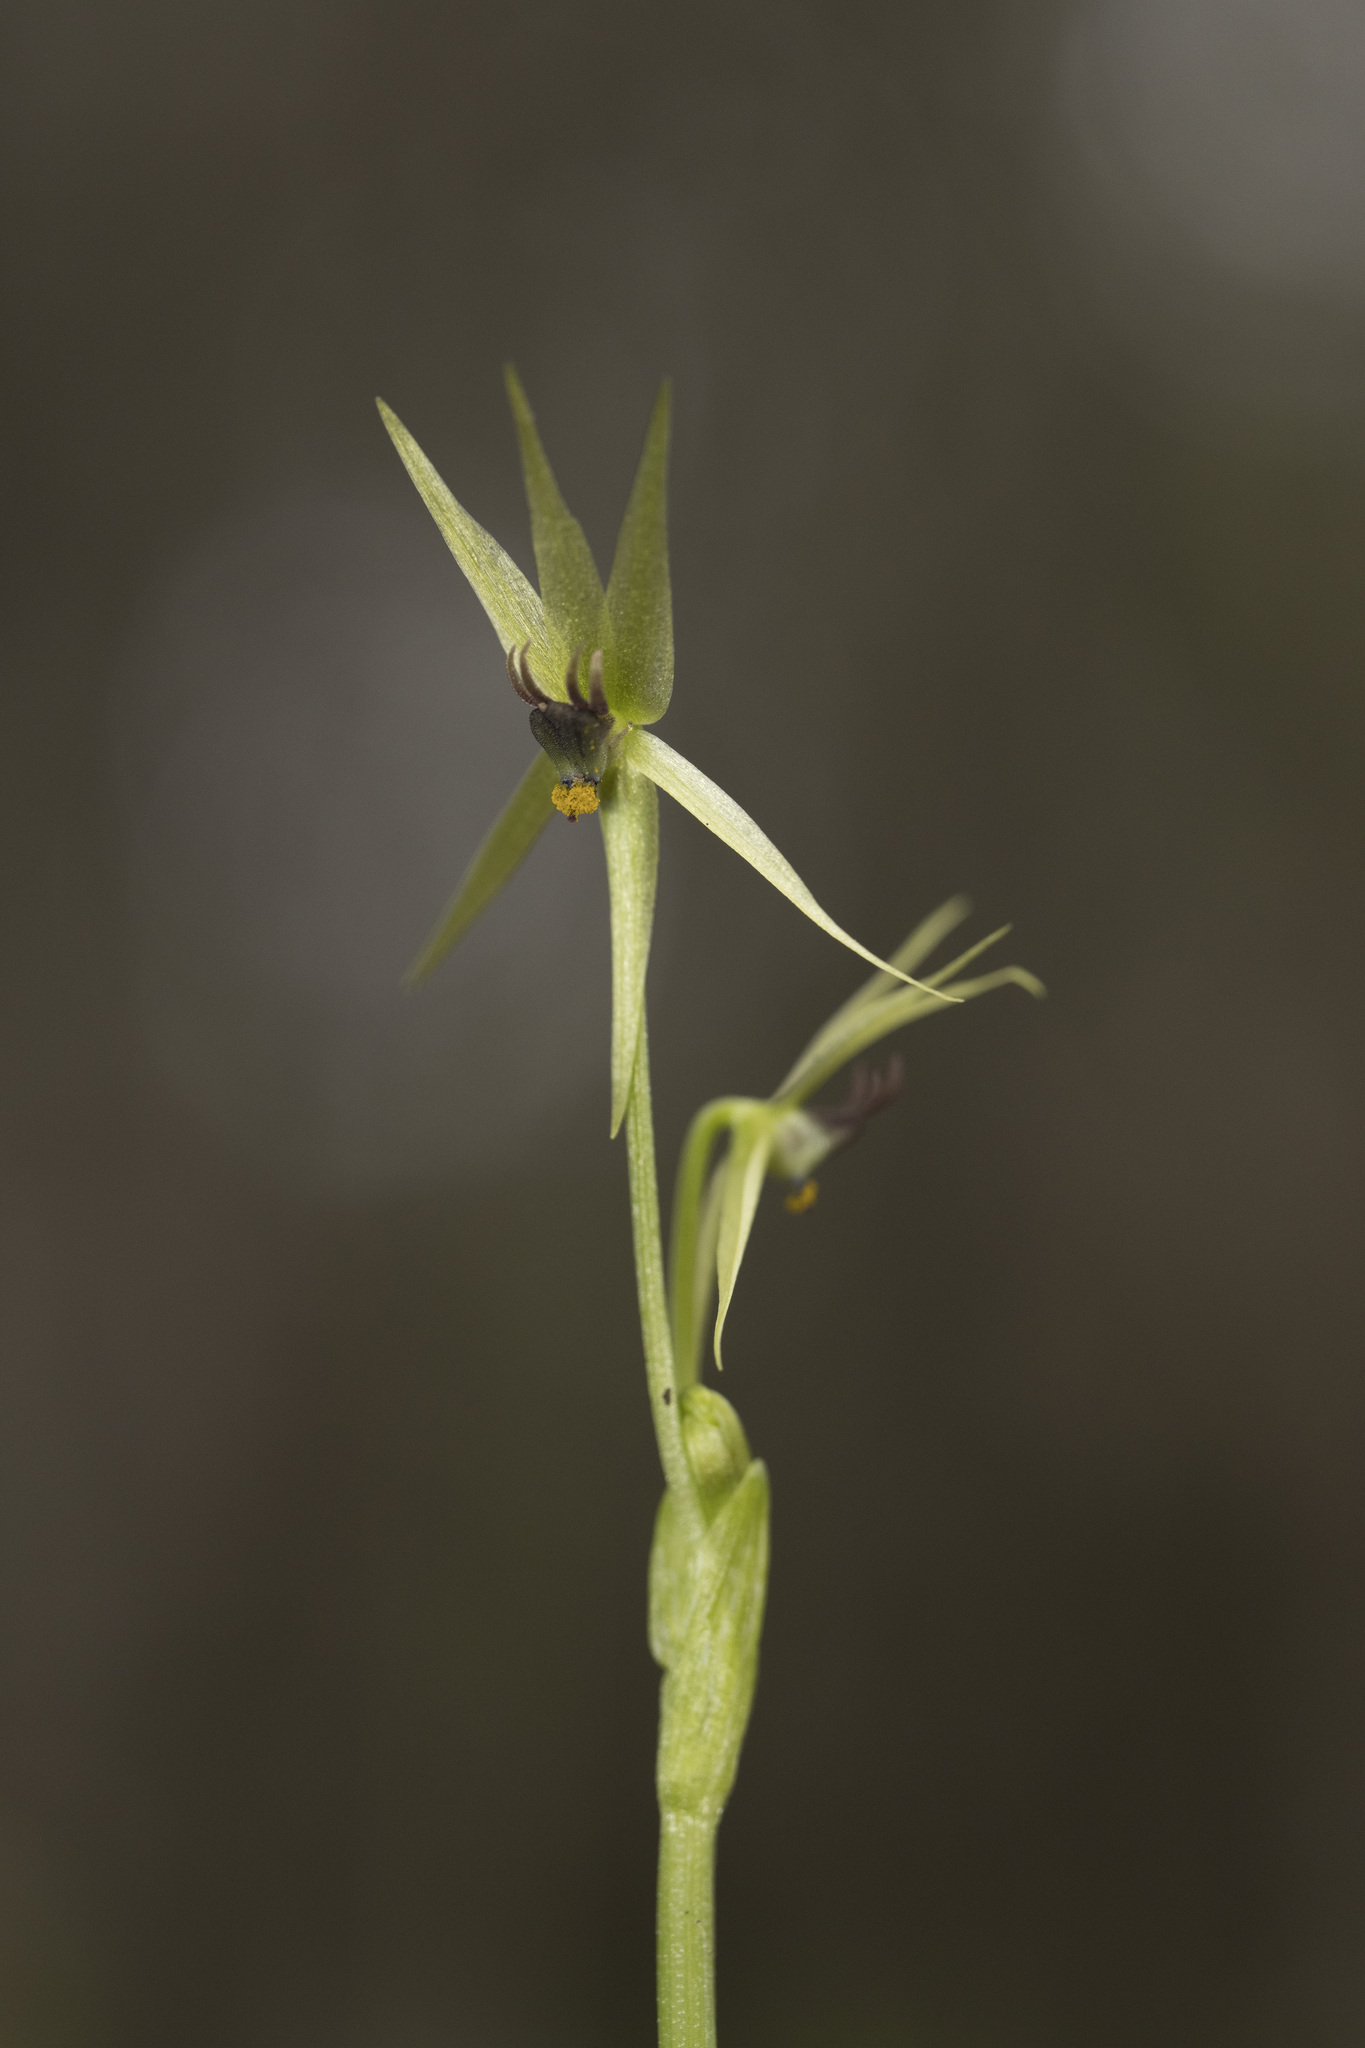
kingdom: Plantae
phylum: Tracheophyta
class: Liliopsida
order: Asparagales
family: Amaryllidaceae
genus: Miersia
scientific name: Miersia chilensis
